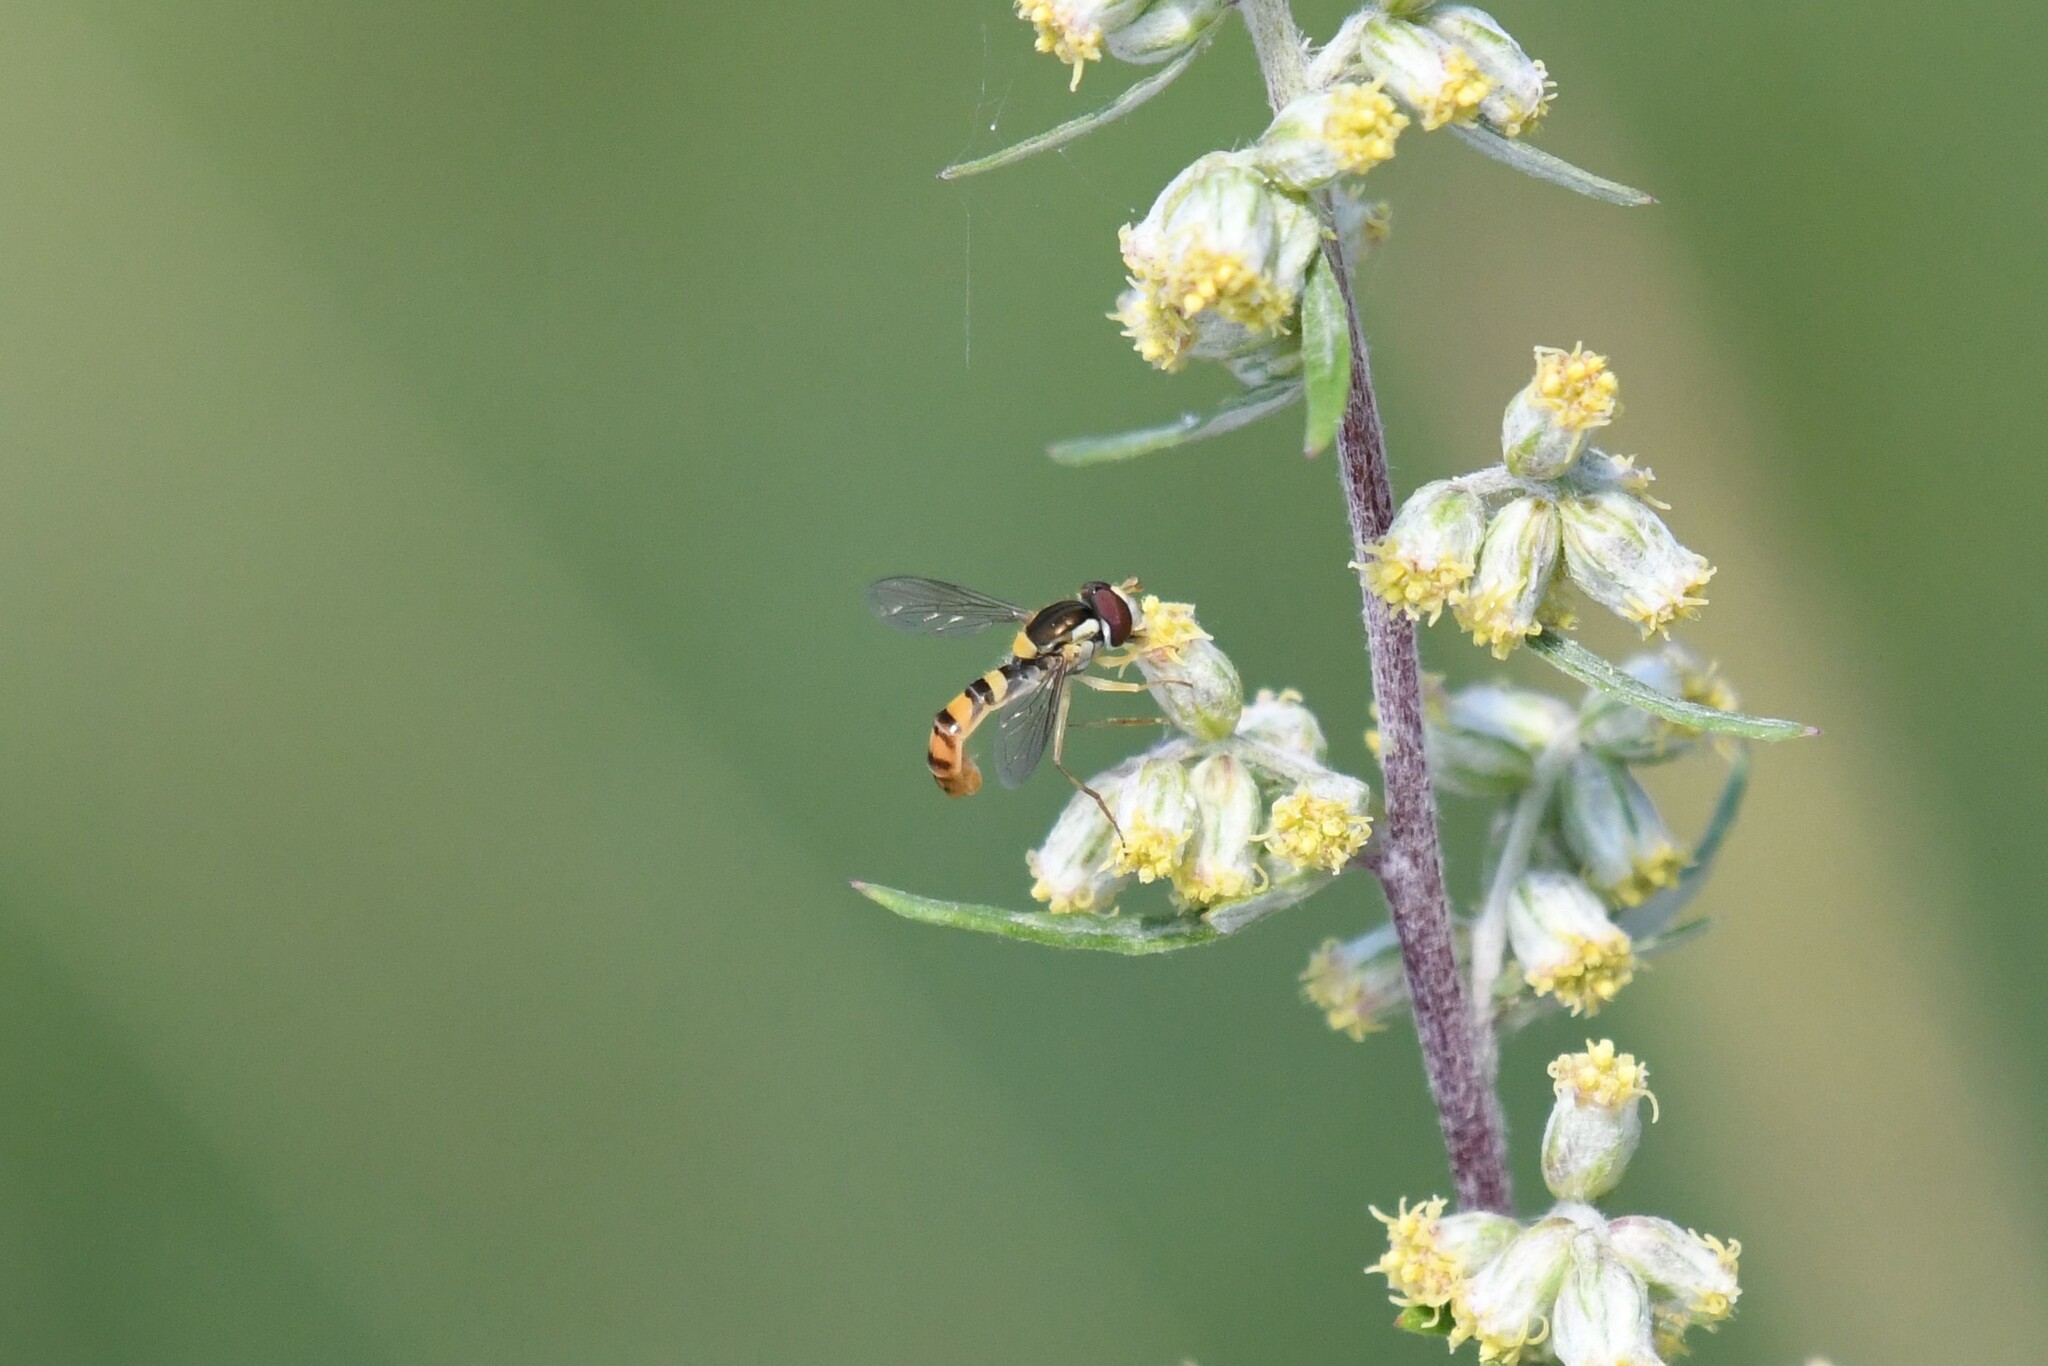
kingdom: Animalia
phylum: Arthropoda
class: Insecta
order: Diptera
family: Syrphidae
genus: Sphaerophoria
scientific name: Sphaerophoria philantha
